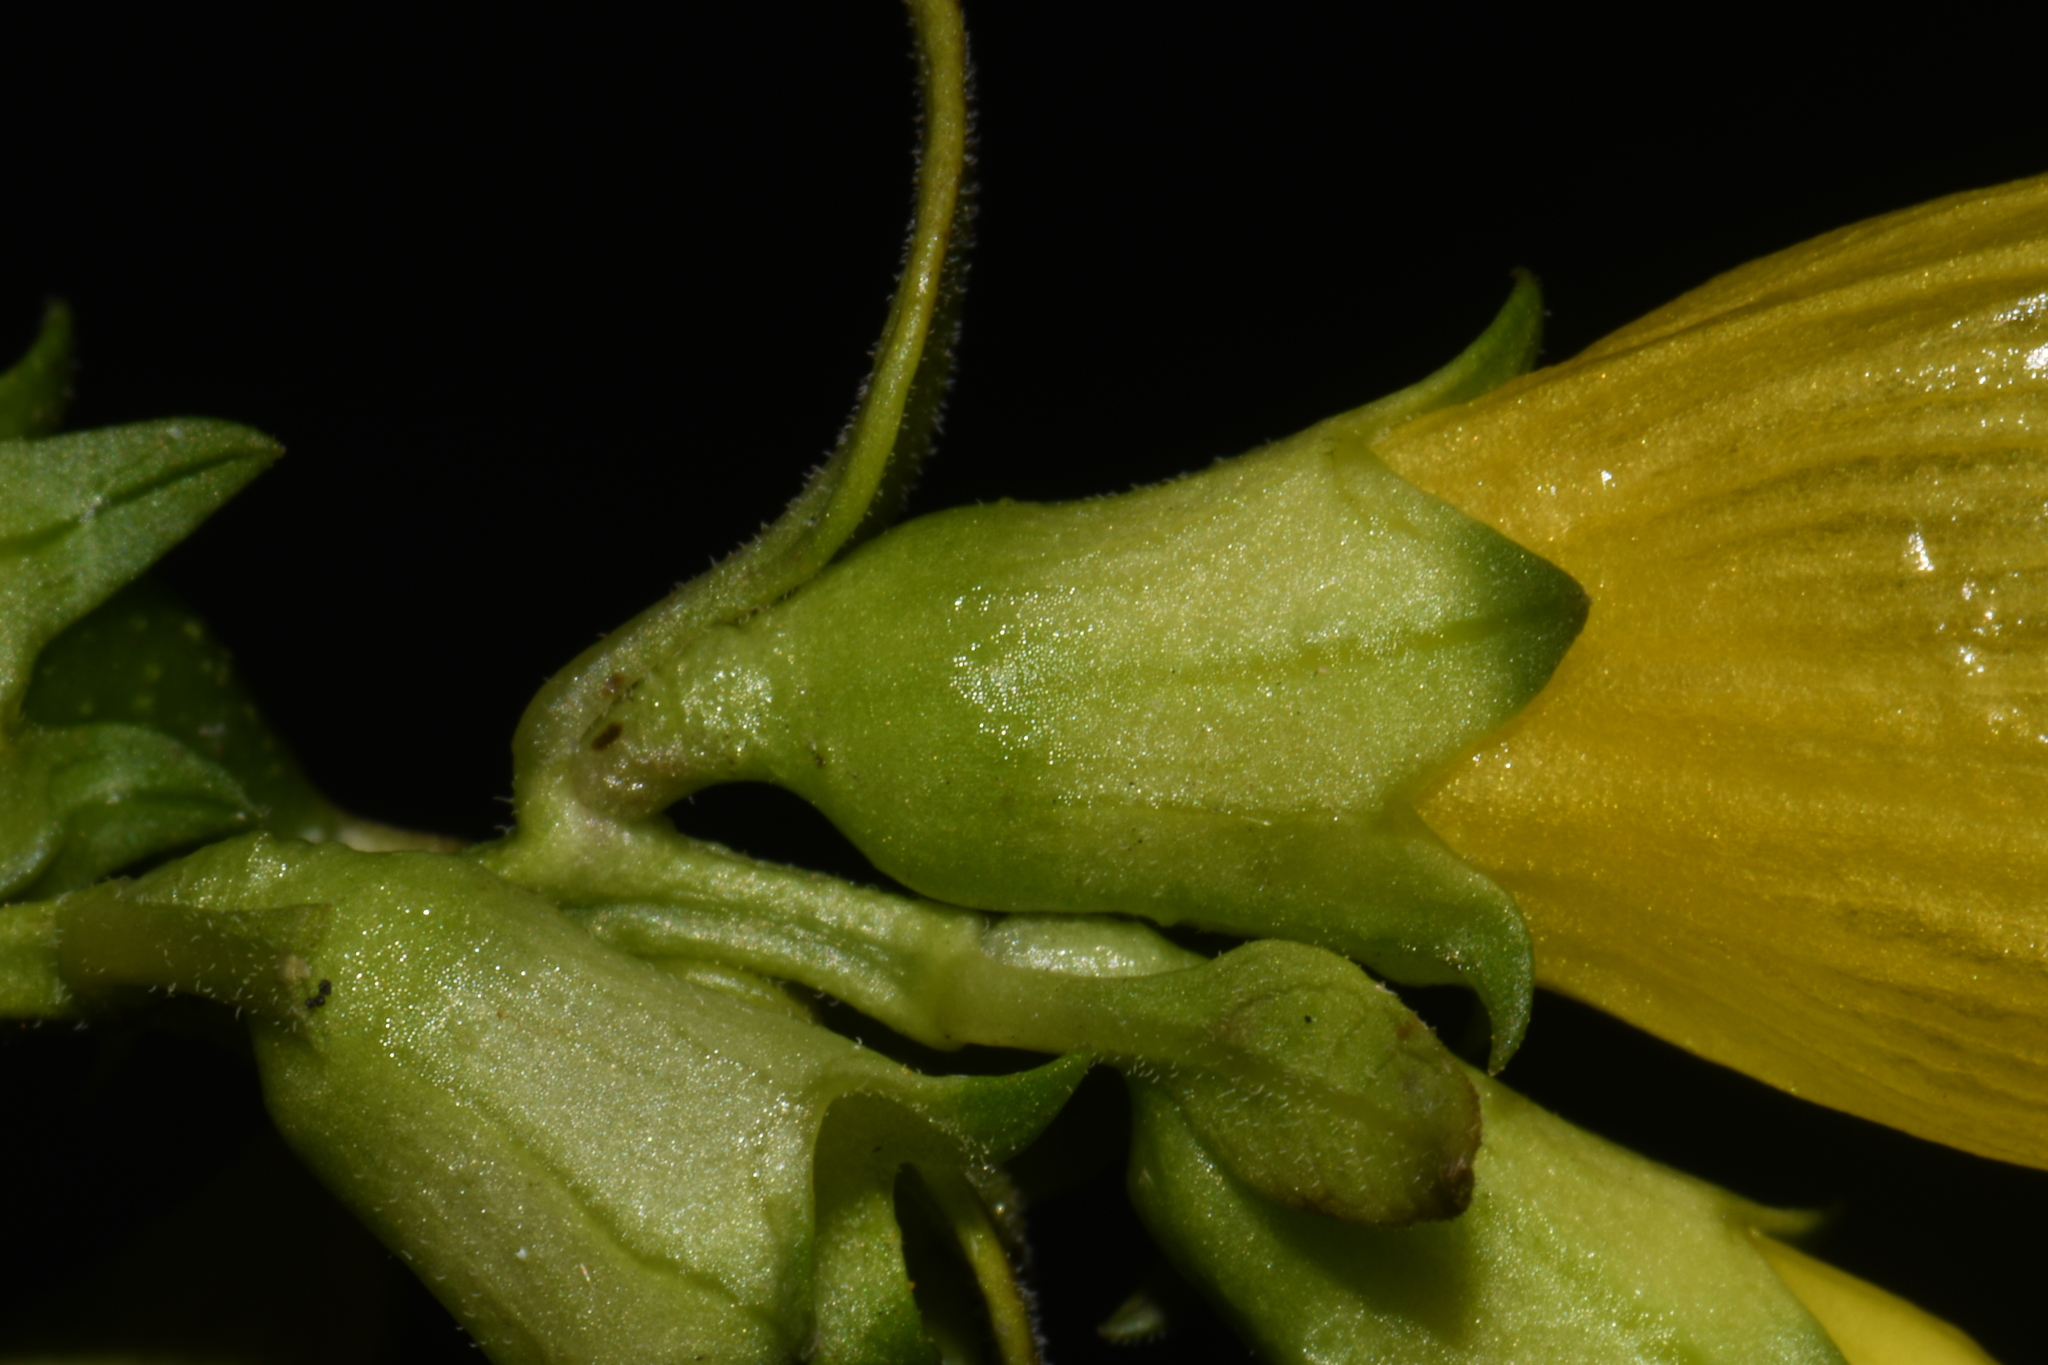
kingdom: Plantae
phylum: Tracheophyta
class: Magnoliopsida
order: Lamiales
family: Orobanchaceae
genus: Aureolaria
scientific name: Aureolaria flava
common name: Smooth false foxglove
